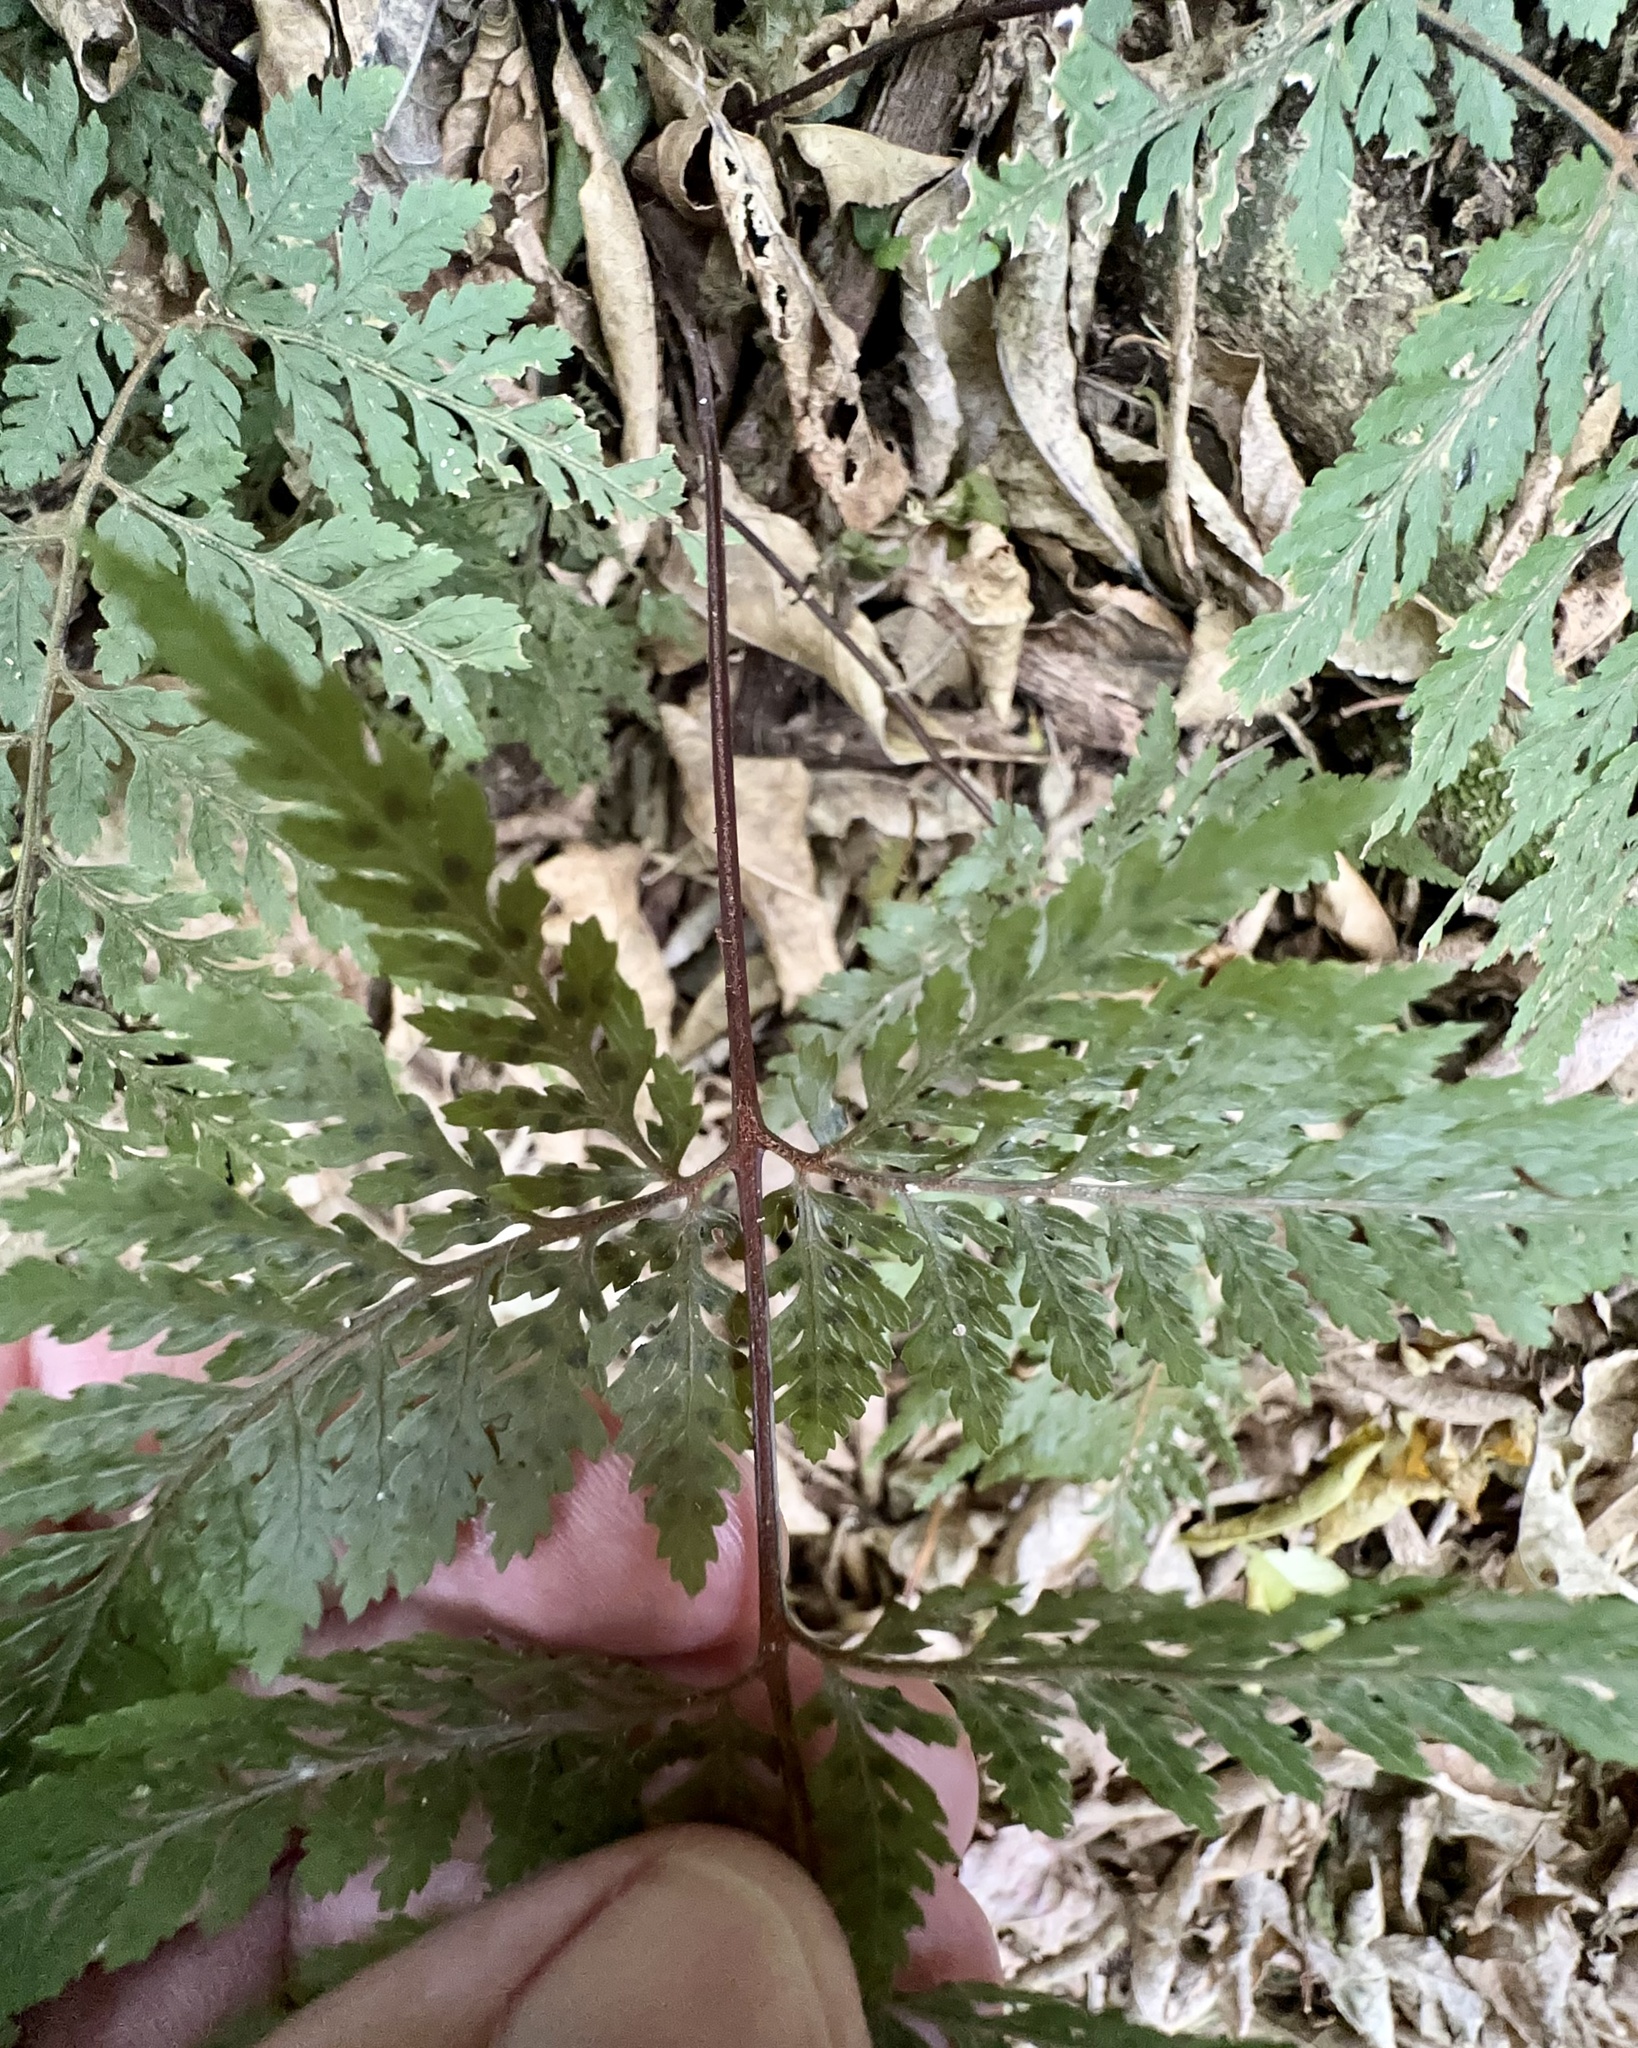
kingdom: Plantae
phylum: Tracheophyta
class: Polypodiopsida
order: Polypodiales
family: Dryopteridaceae
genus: Parapolystichum
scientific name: Parapolystichum glabellum
